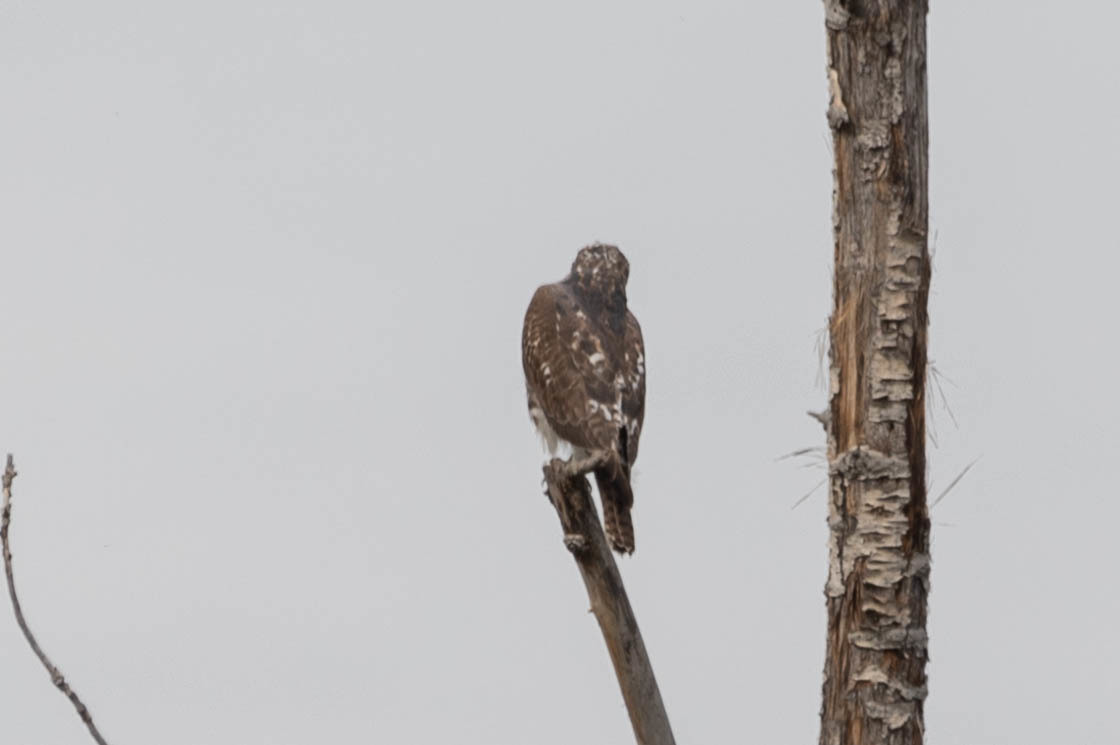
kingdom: Animalia
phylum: Chordata
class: Aves
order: Accipitriformes
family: Accipitridae
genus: Buteo
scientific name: Buteo jamaicensis
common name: Red-tailed hawk
